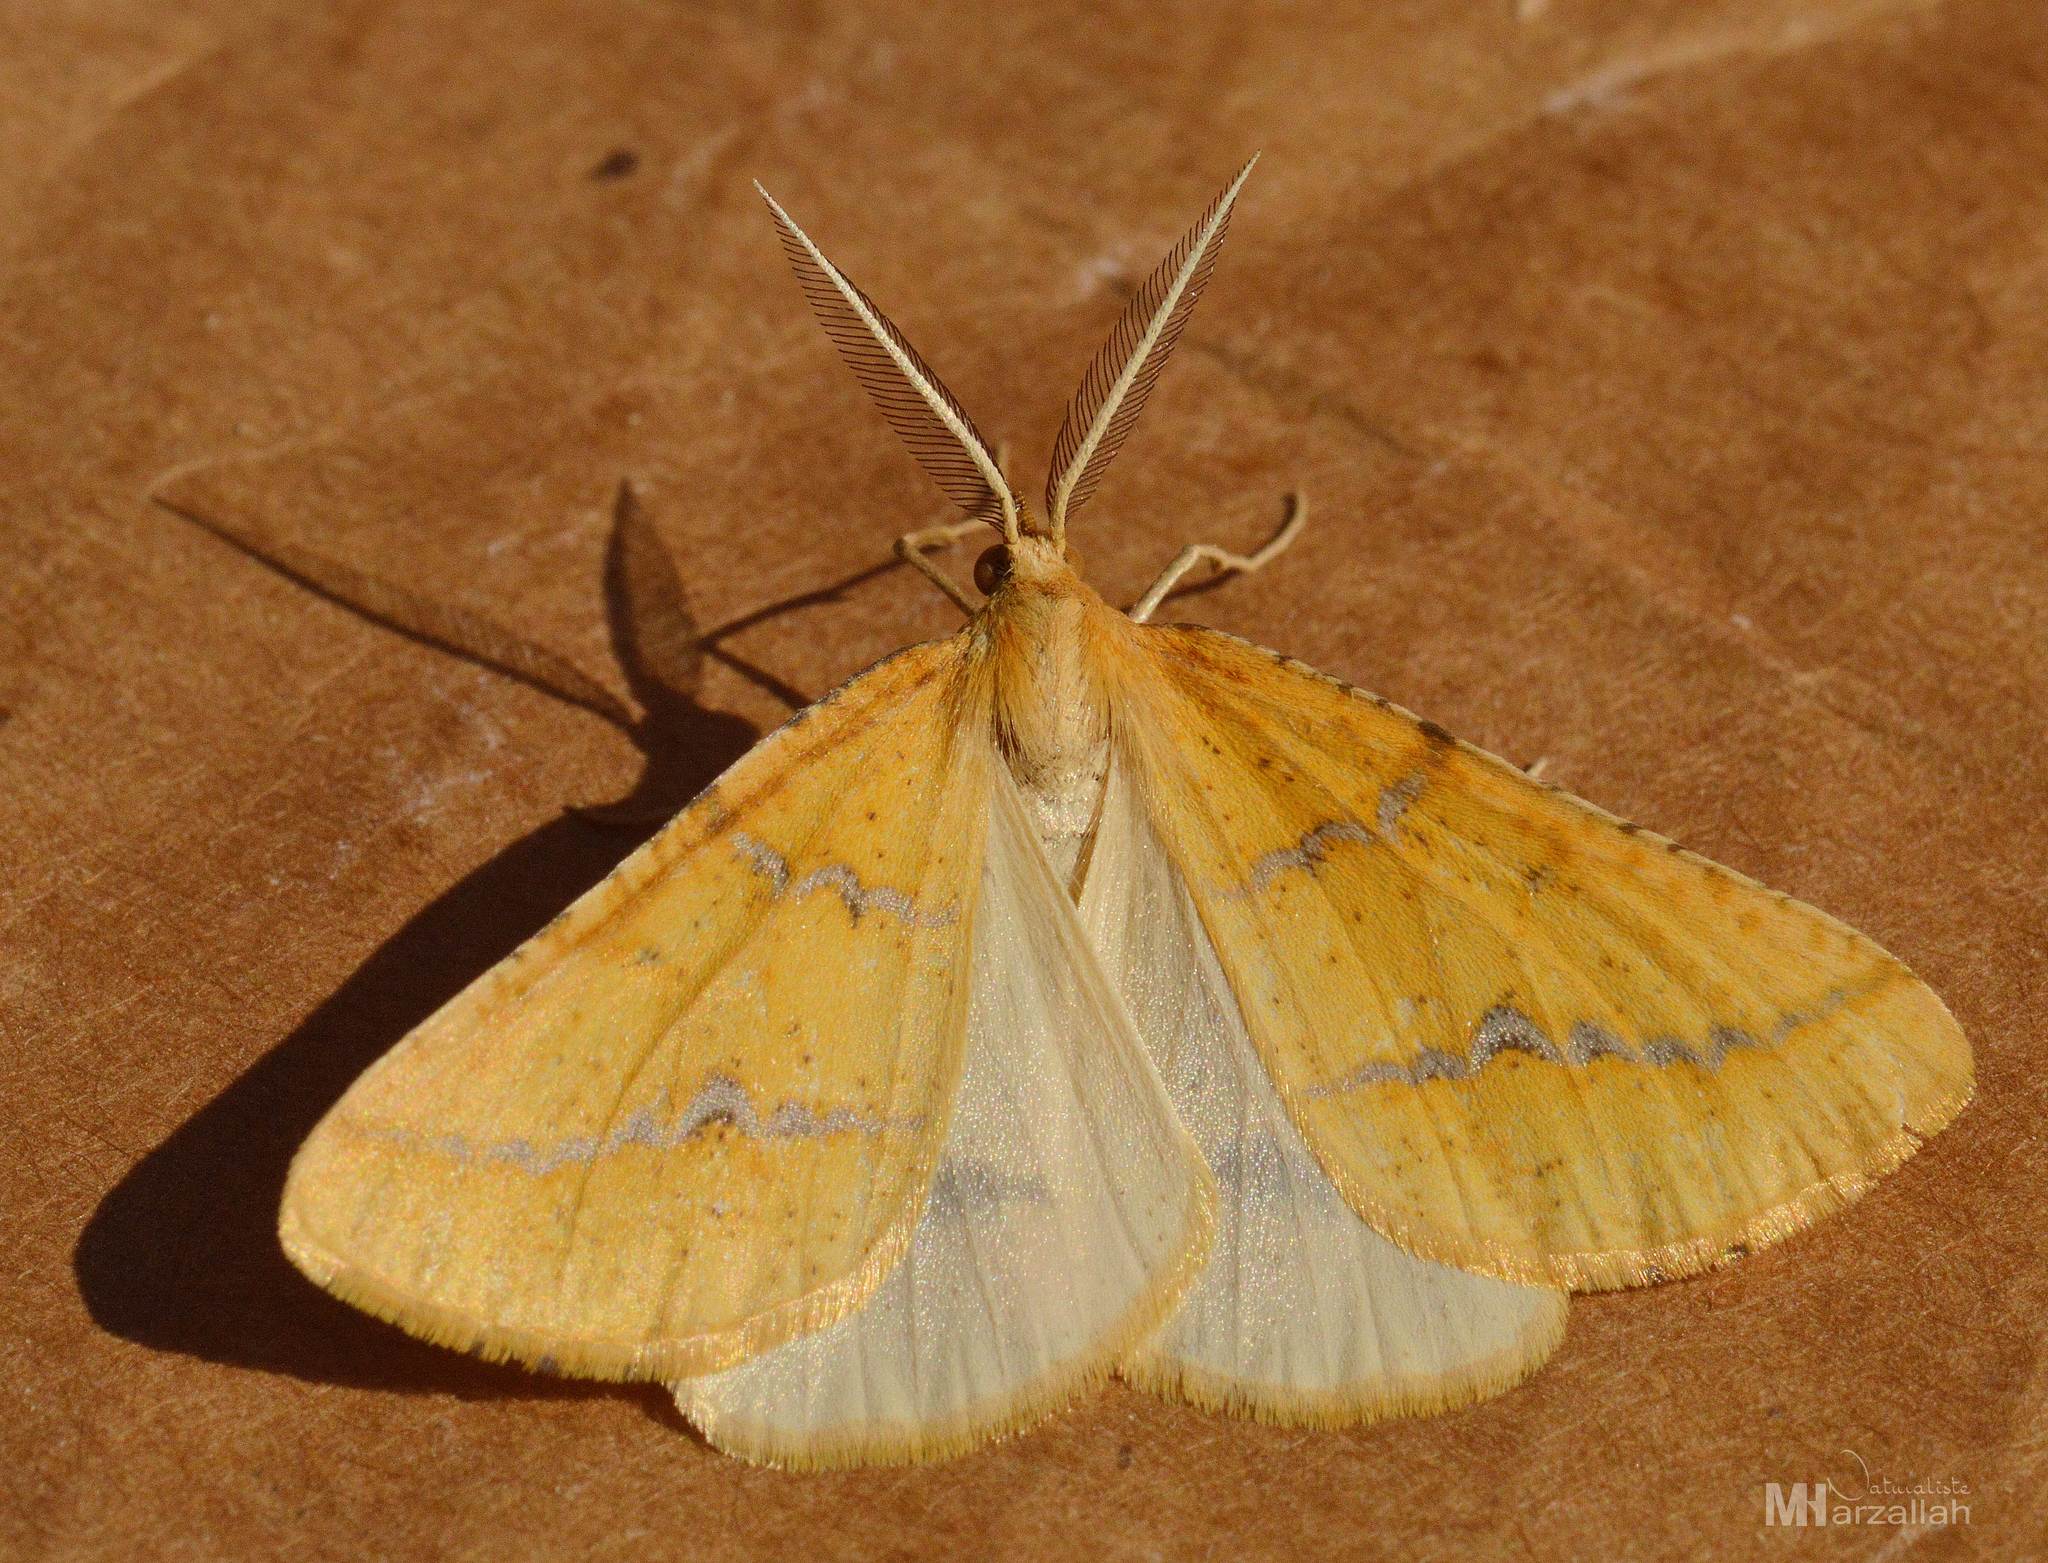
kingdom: Animalia
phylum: Arthropoda
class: Insecta
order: Lepidoptera
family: Geometridae
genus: Aspitates
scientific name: Aspitates ochrearia
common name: Yellow belle
